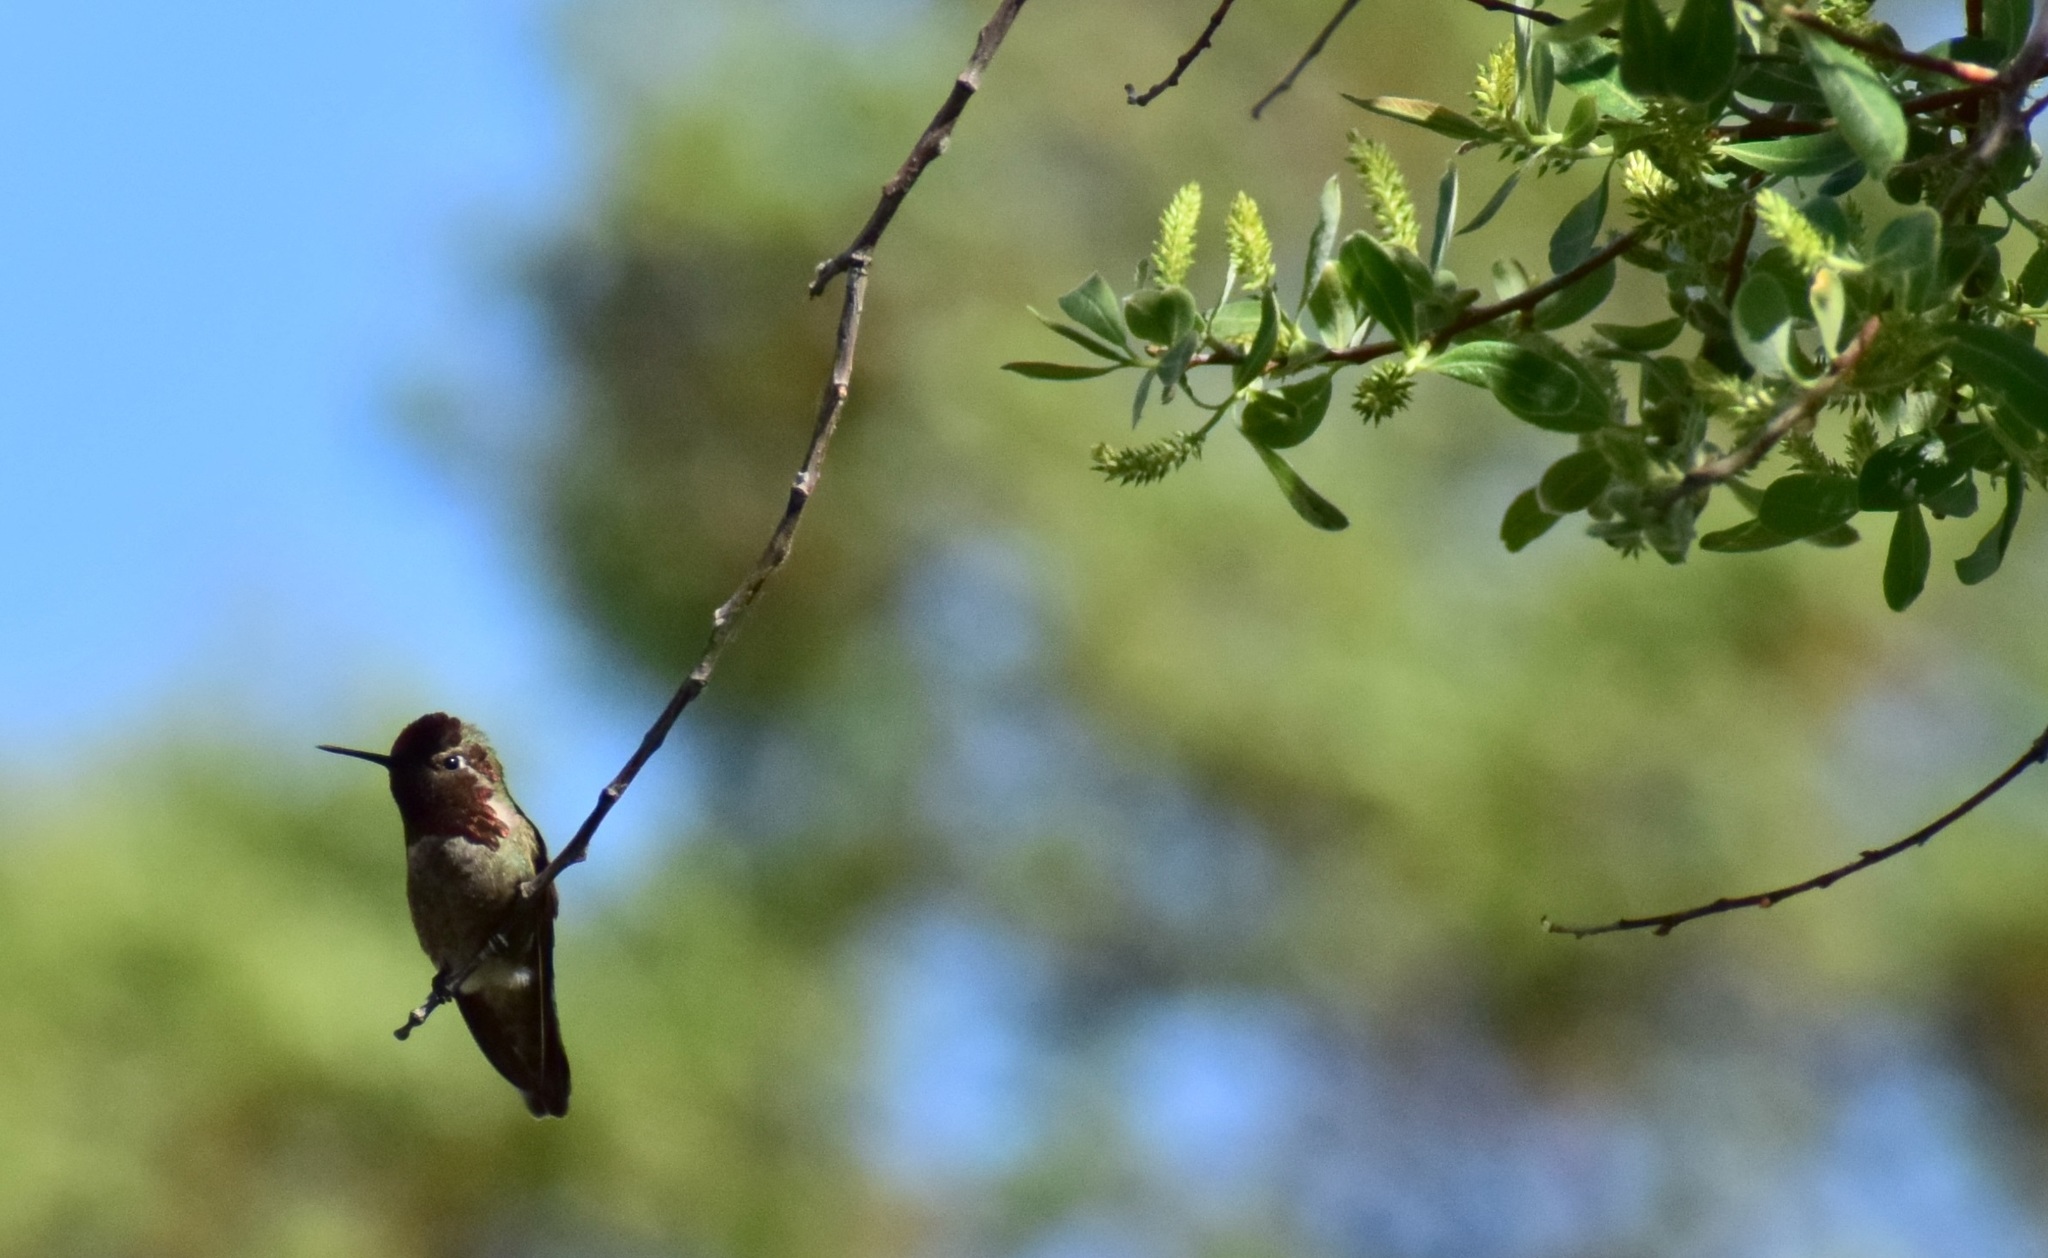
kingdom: Animalia
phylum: Chordata
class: Aves
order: Apodiformes
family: Trochilidae
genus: Calypte
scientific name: Calypte anna
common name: Anna's hummingbird
